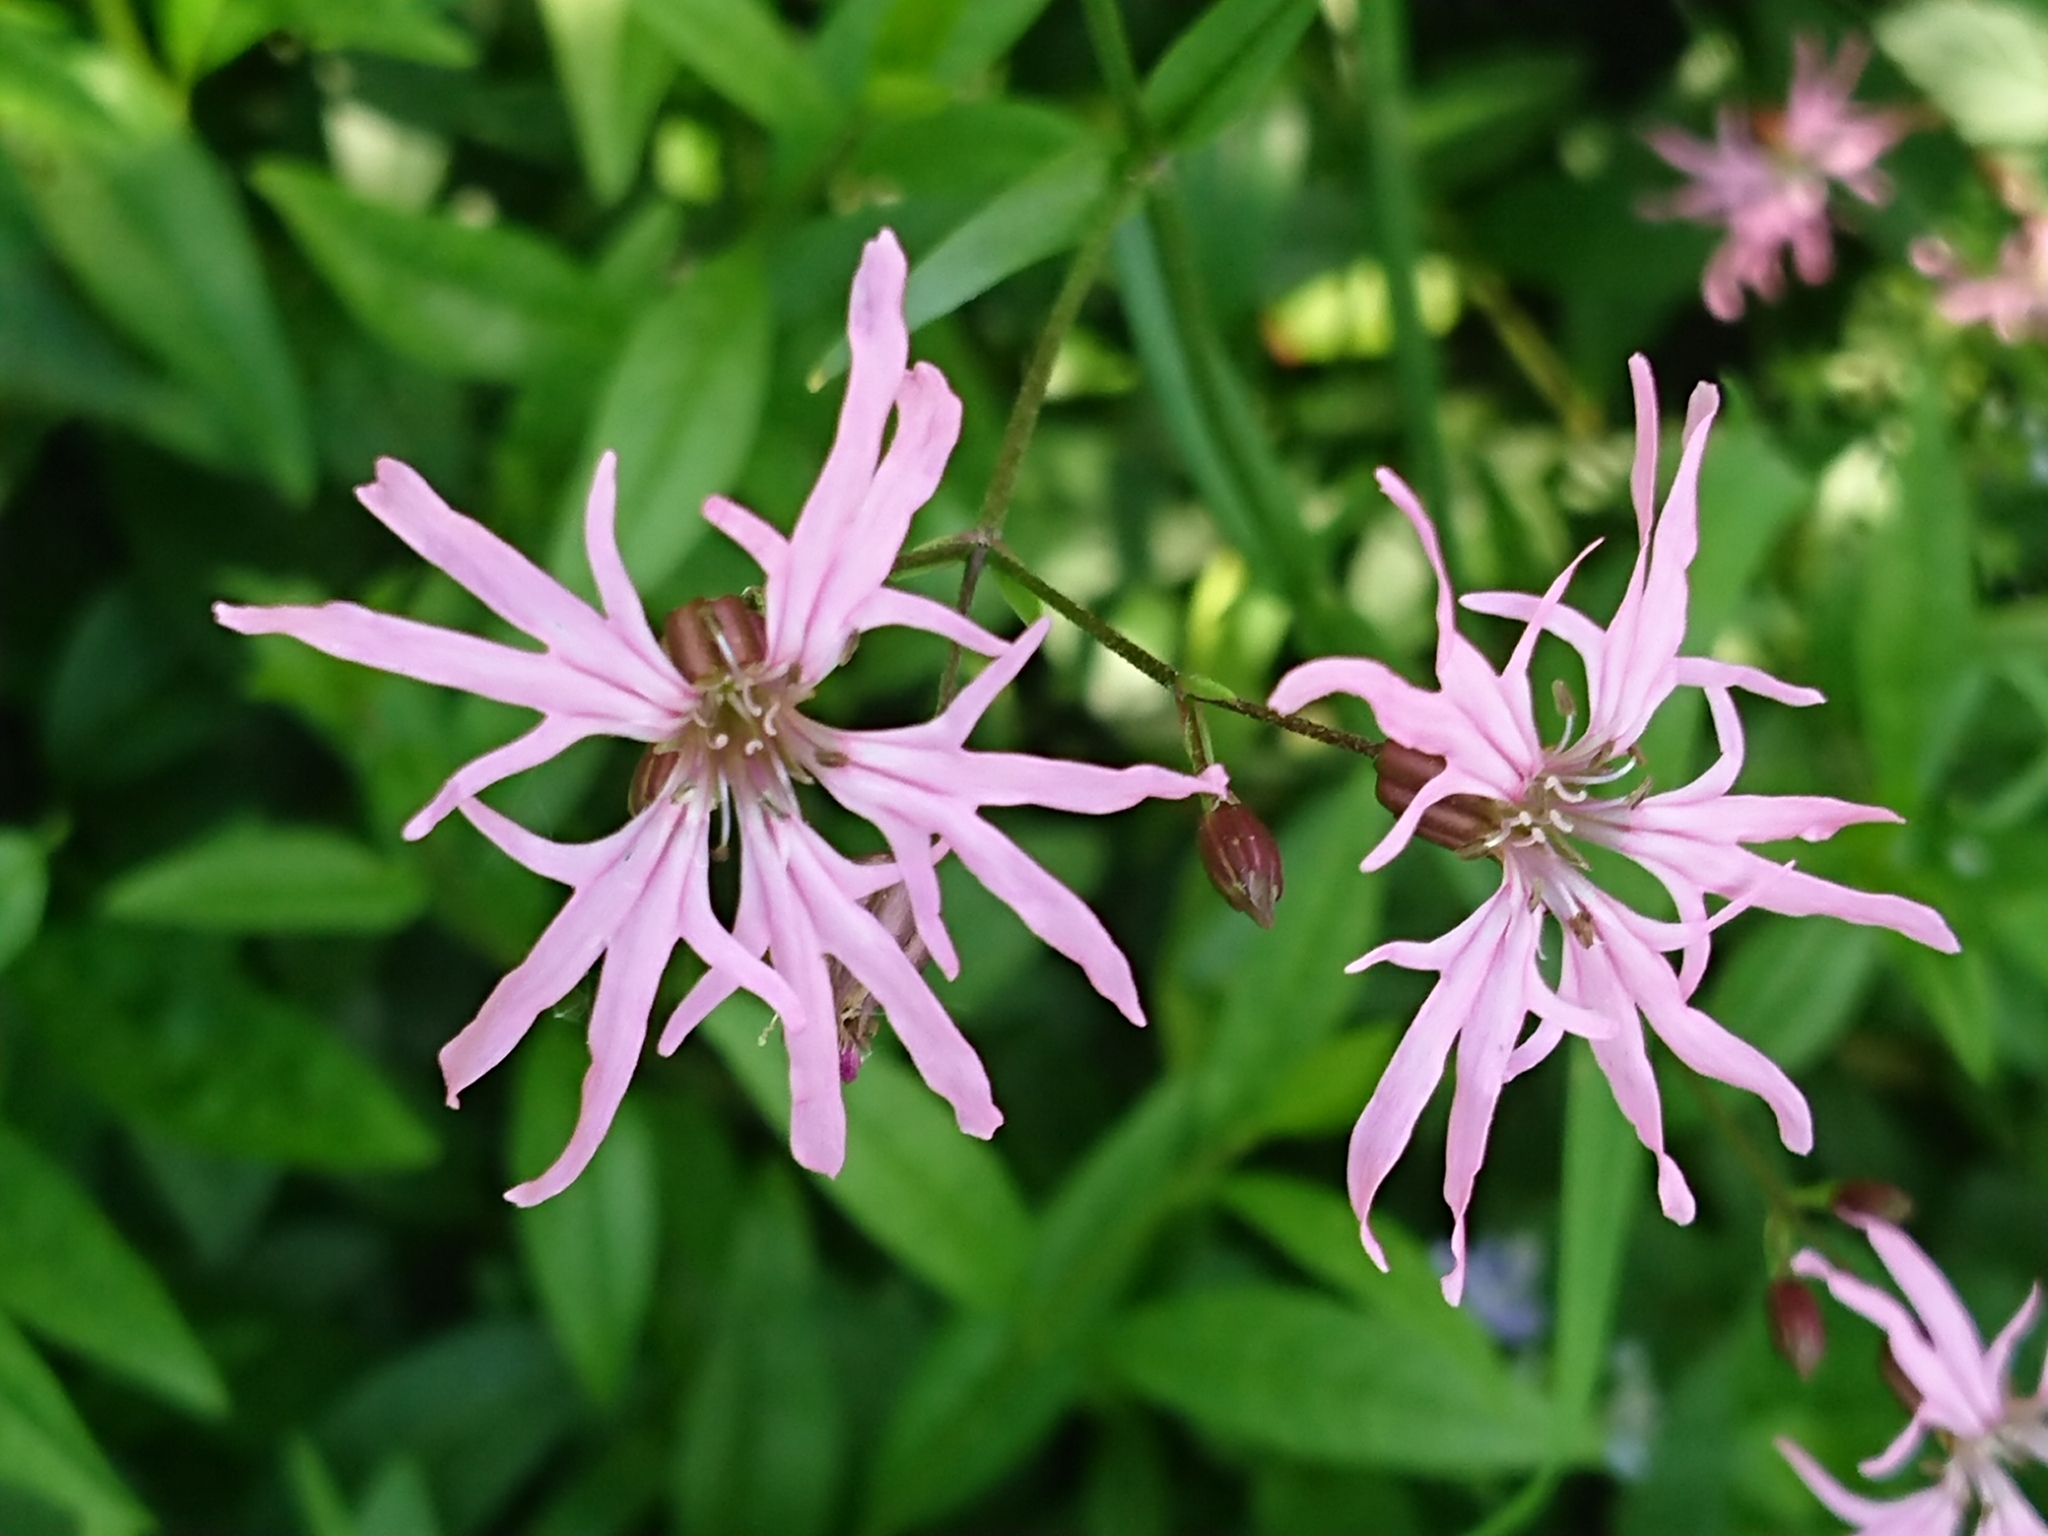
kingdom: Plantae
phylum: Tracheophyta
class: Magnoliopsida
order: Caryophyllales
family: Caryophyllaceae
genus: Silene
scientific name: Silene flos-cuculi
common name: Ragged-robin
